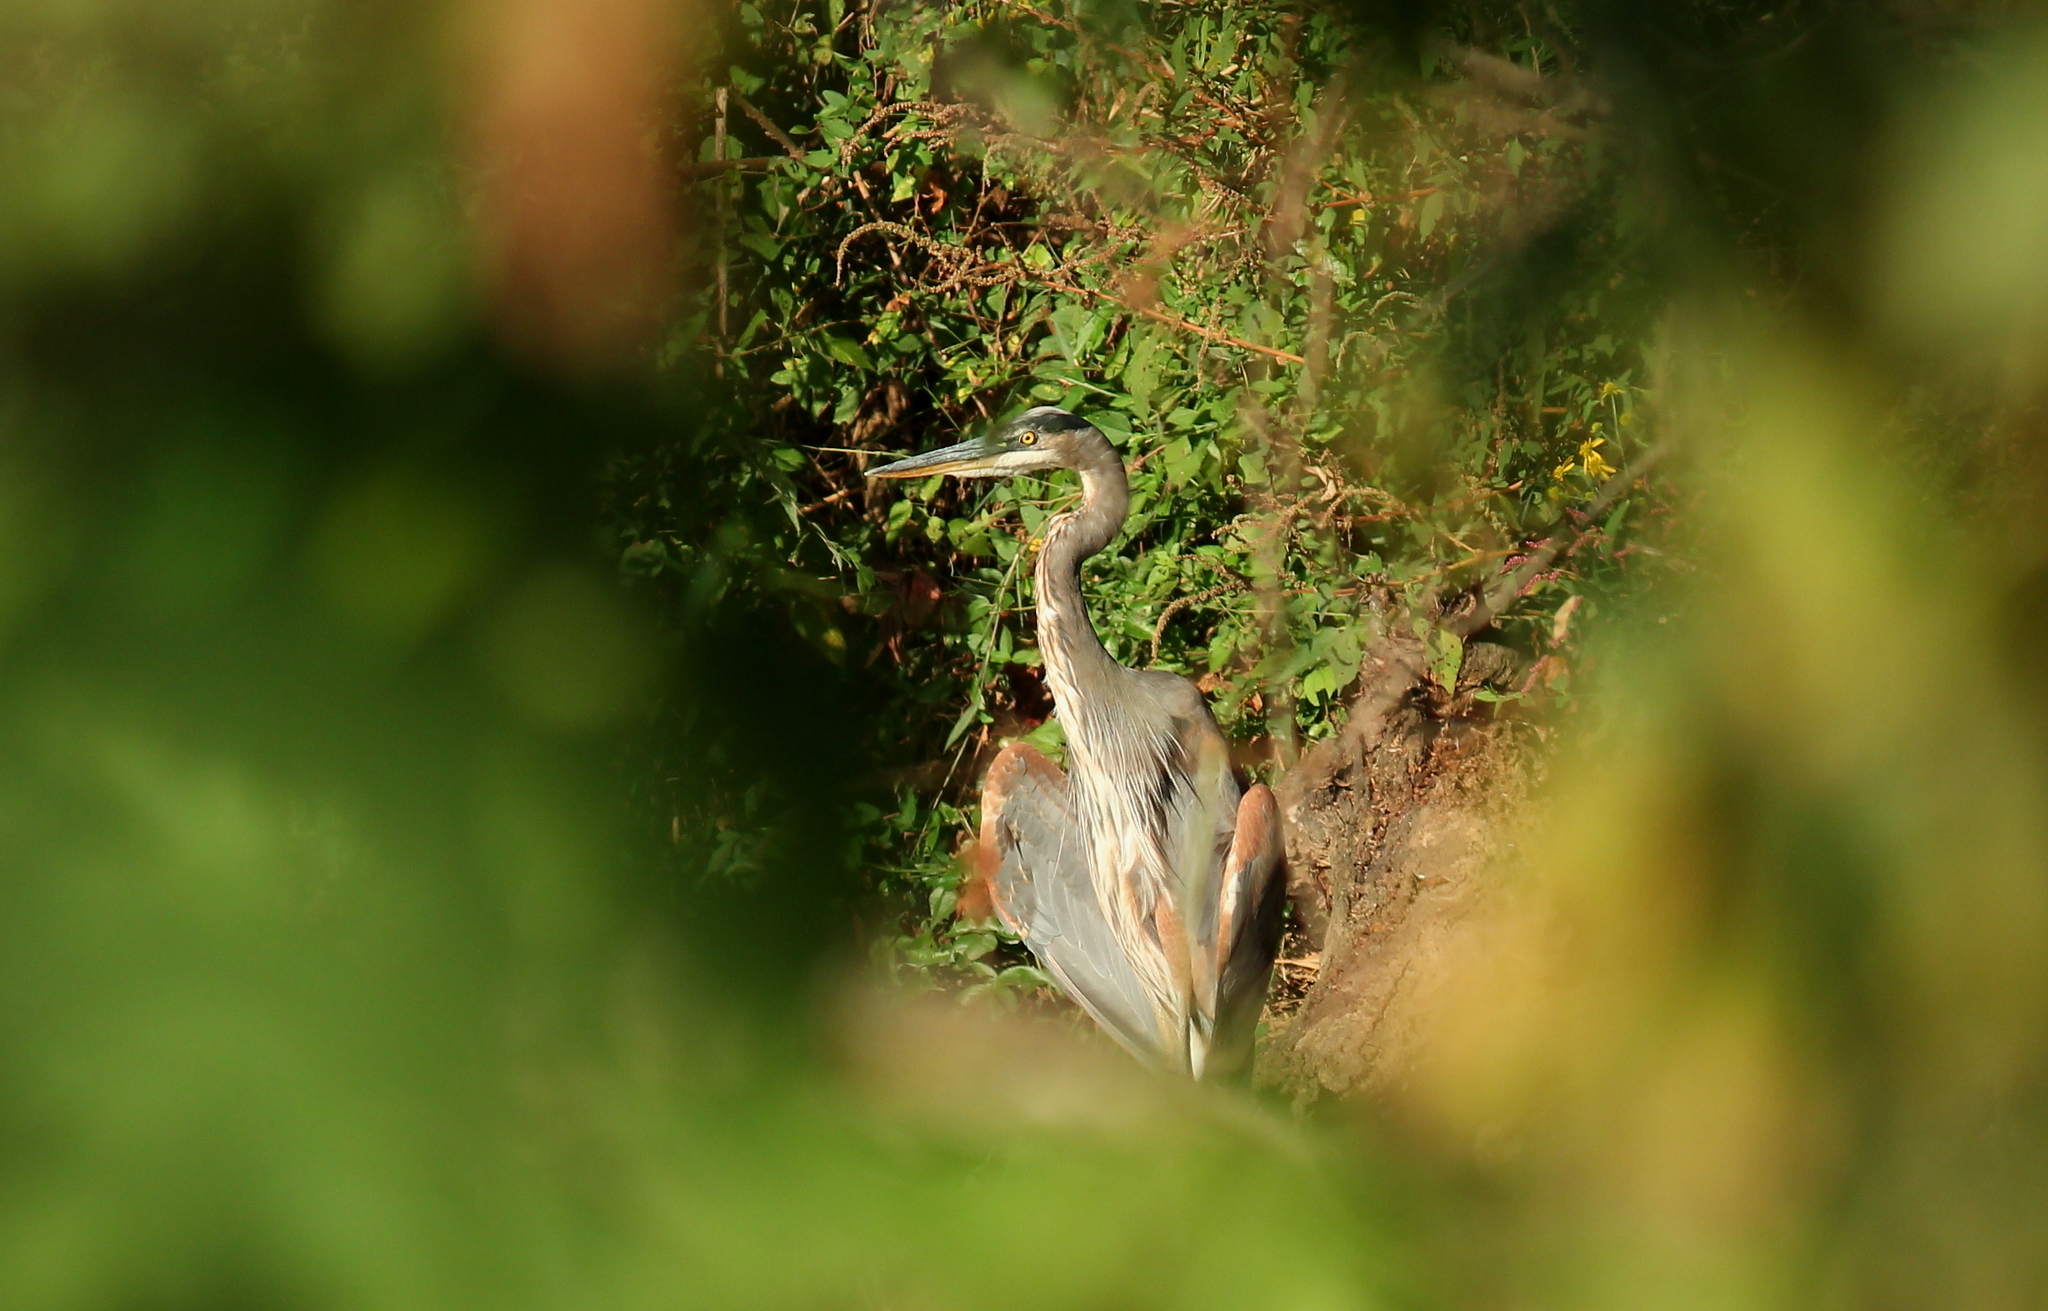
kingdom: Animalia
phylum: Chordata
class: Aves
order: Pelecaniformes
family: Ardeidae
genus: Ardea
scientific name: Ardea herodias
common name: Great blue heron
